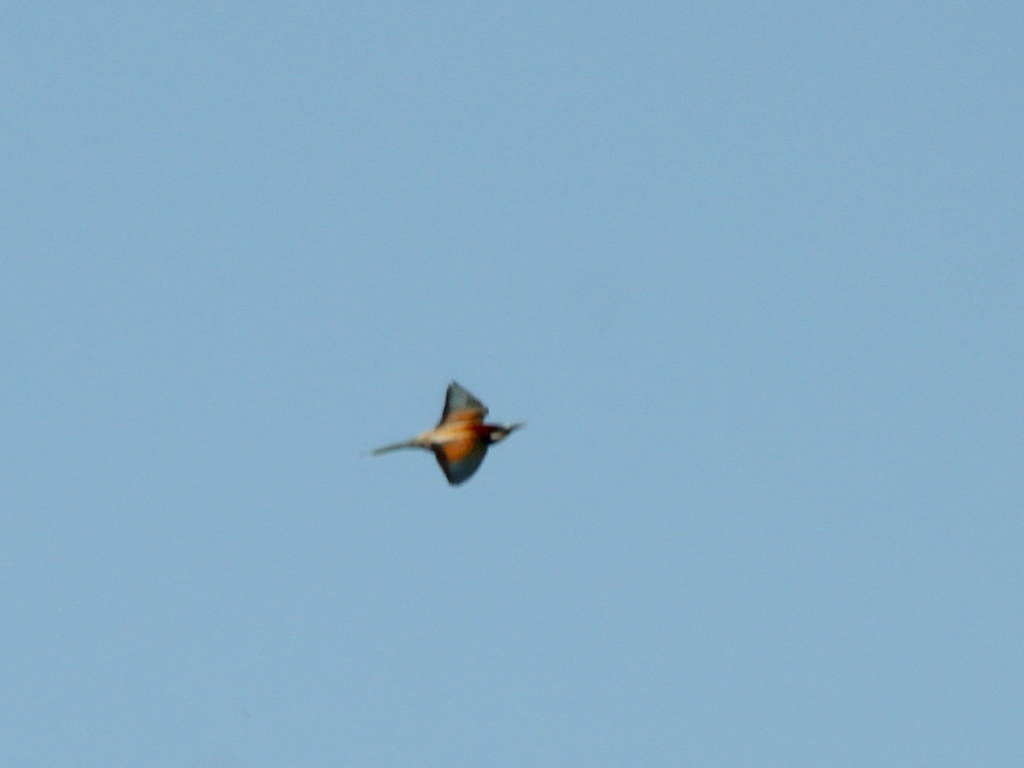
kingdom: Animalia
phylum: Chordata
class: Aves
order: Coraciiformes
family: Meropidae
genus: Merops
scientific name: Merops apiaster
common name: European bee-eater
